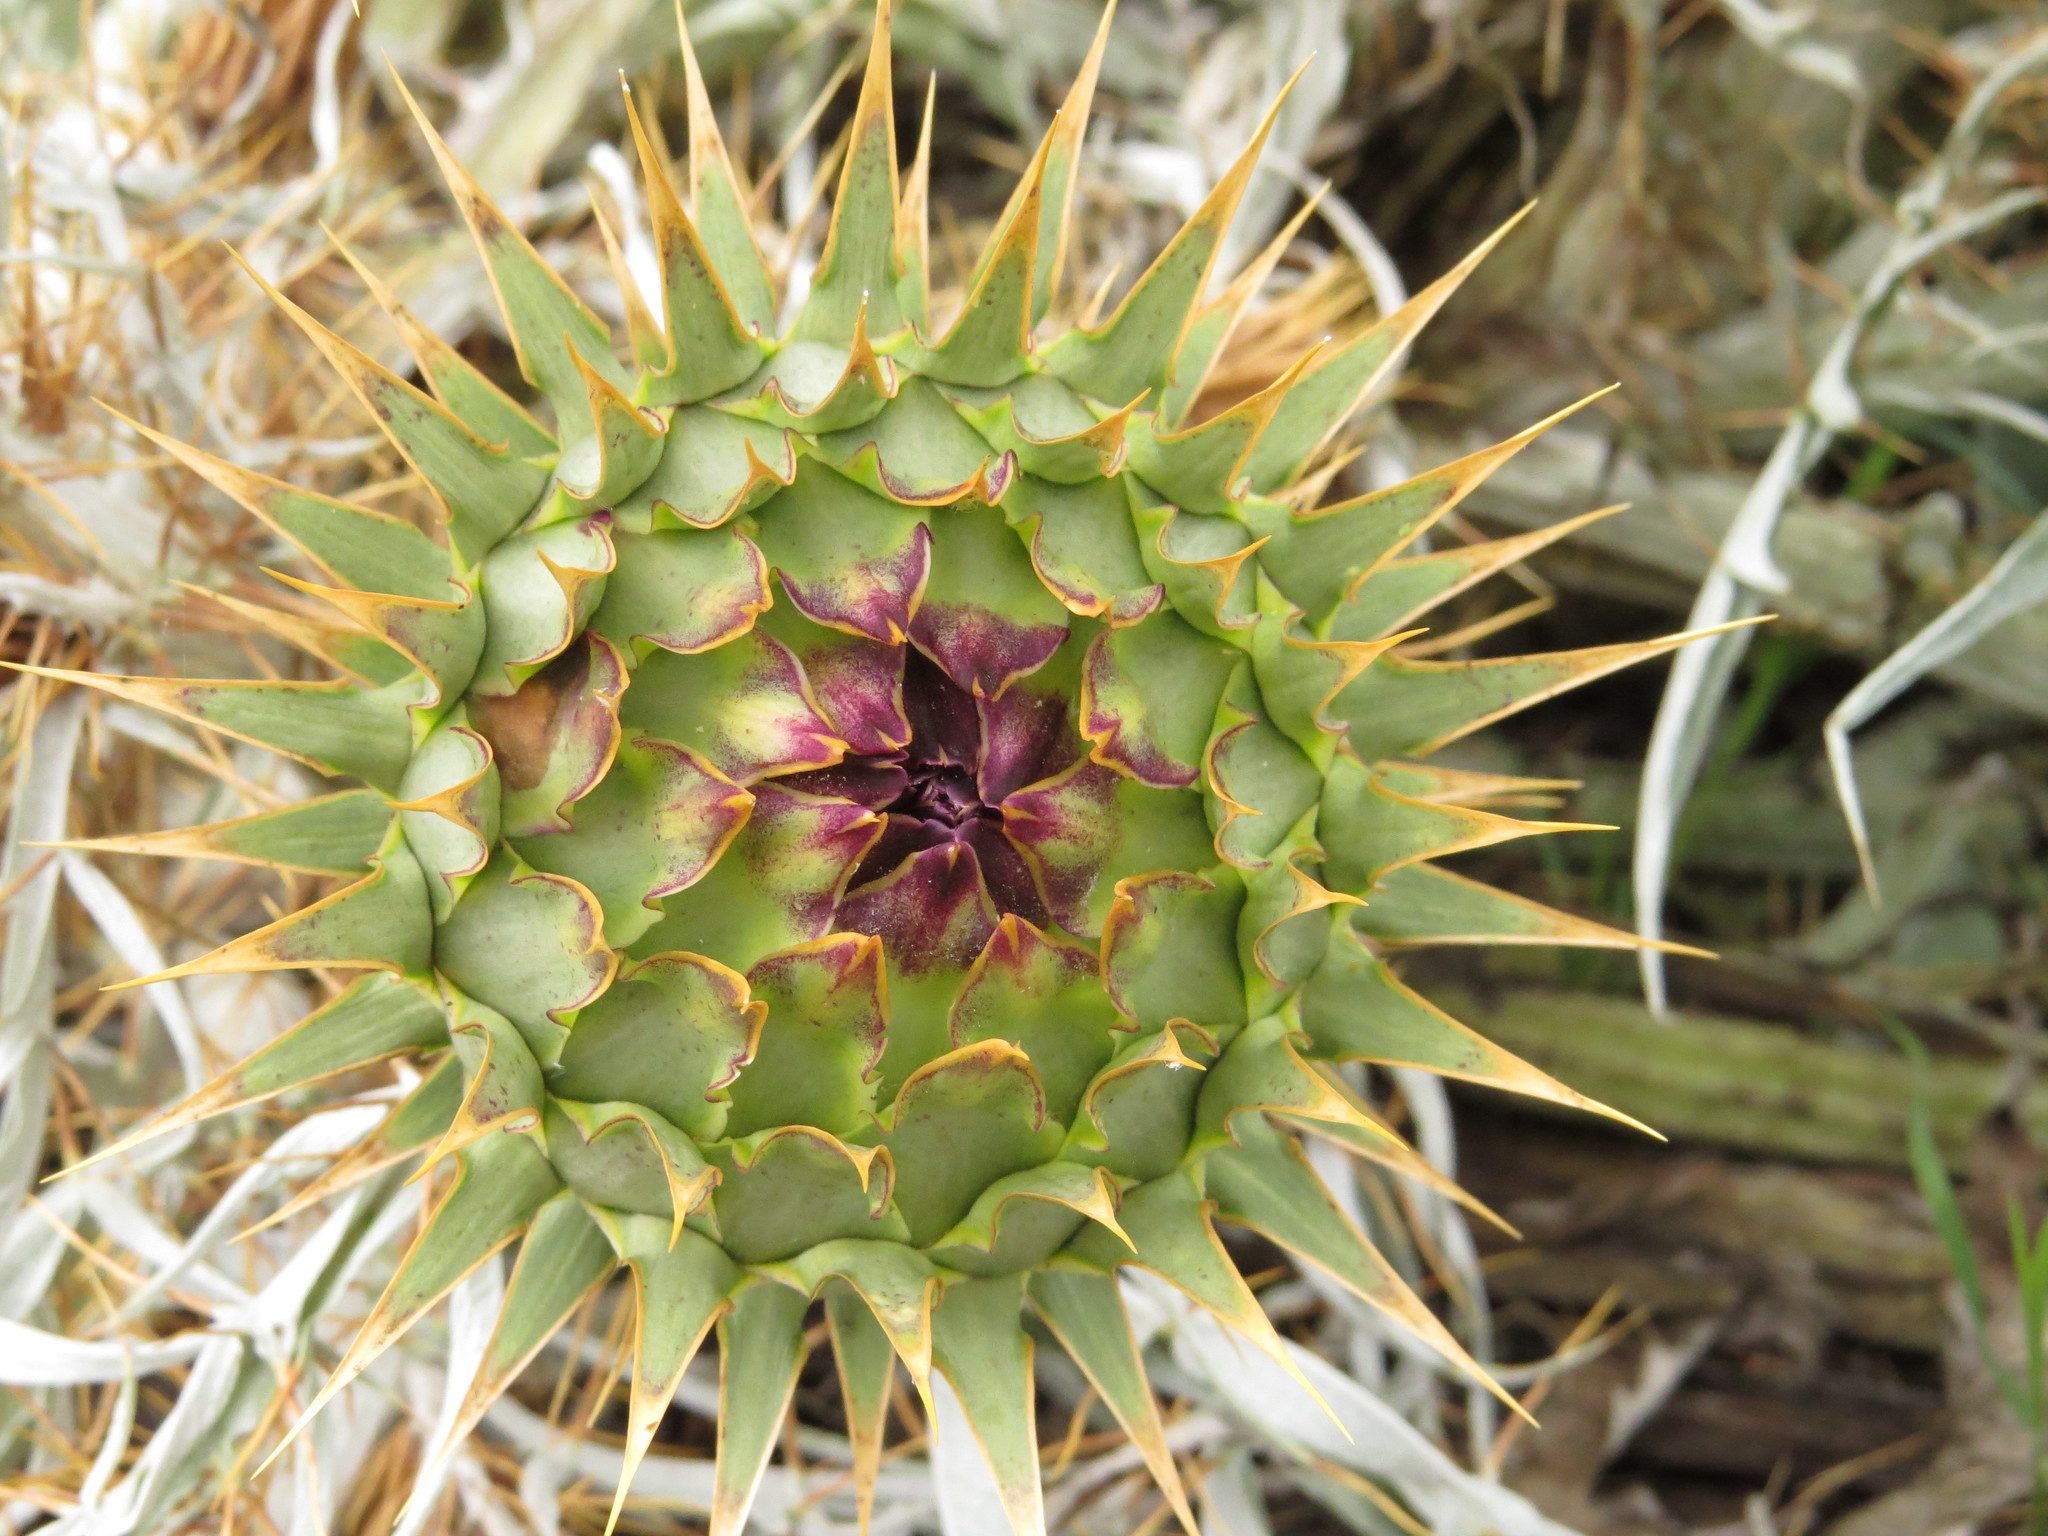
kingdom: Plantae
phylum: Tracheophyta
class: Magnoliopsida
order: Asterales
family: Asteraceae
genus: Cynara
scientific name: Cynara cardunculus
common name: Globe artichoke
